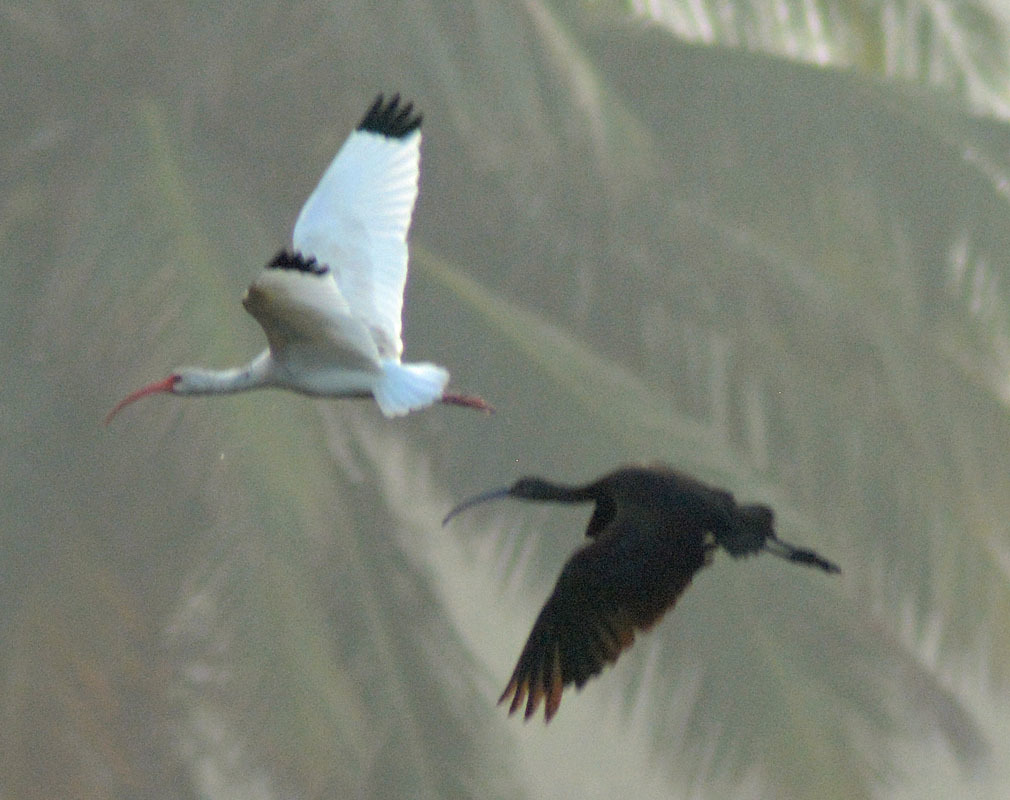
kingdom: Animalia
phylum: Chordata
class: Aves
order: Pelecaniformes
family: Threskiornithidae
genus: Eudocimus
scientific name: Eudocimus albus
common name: White ibis
